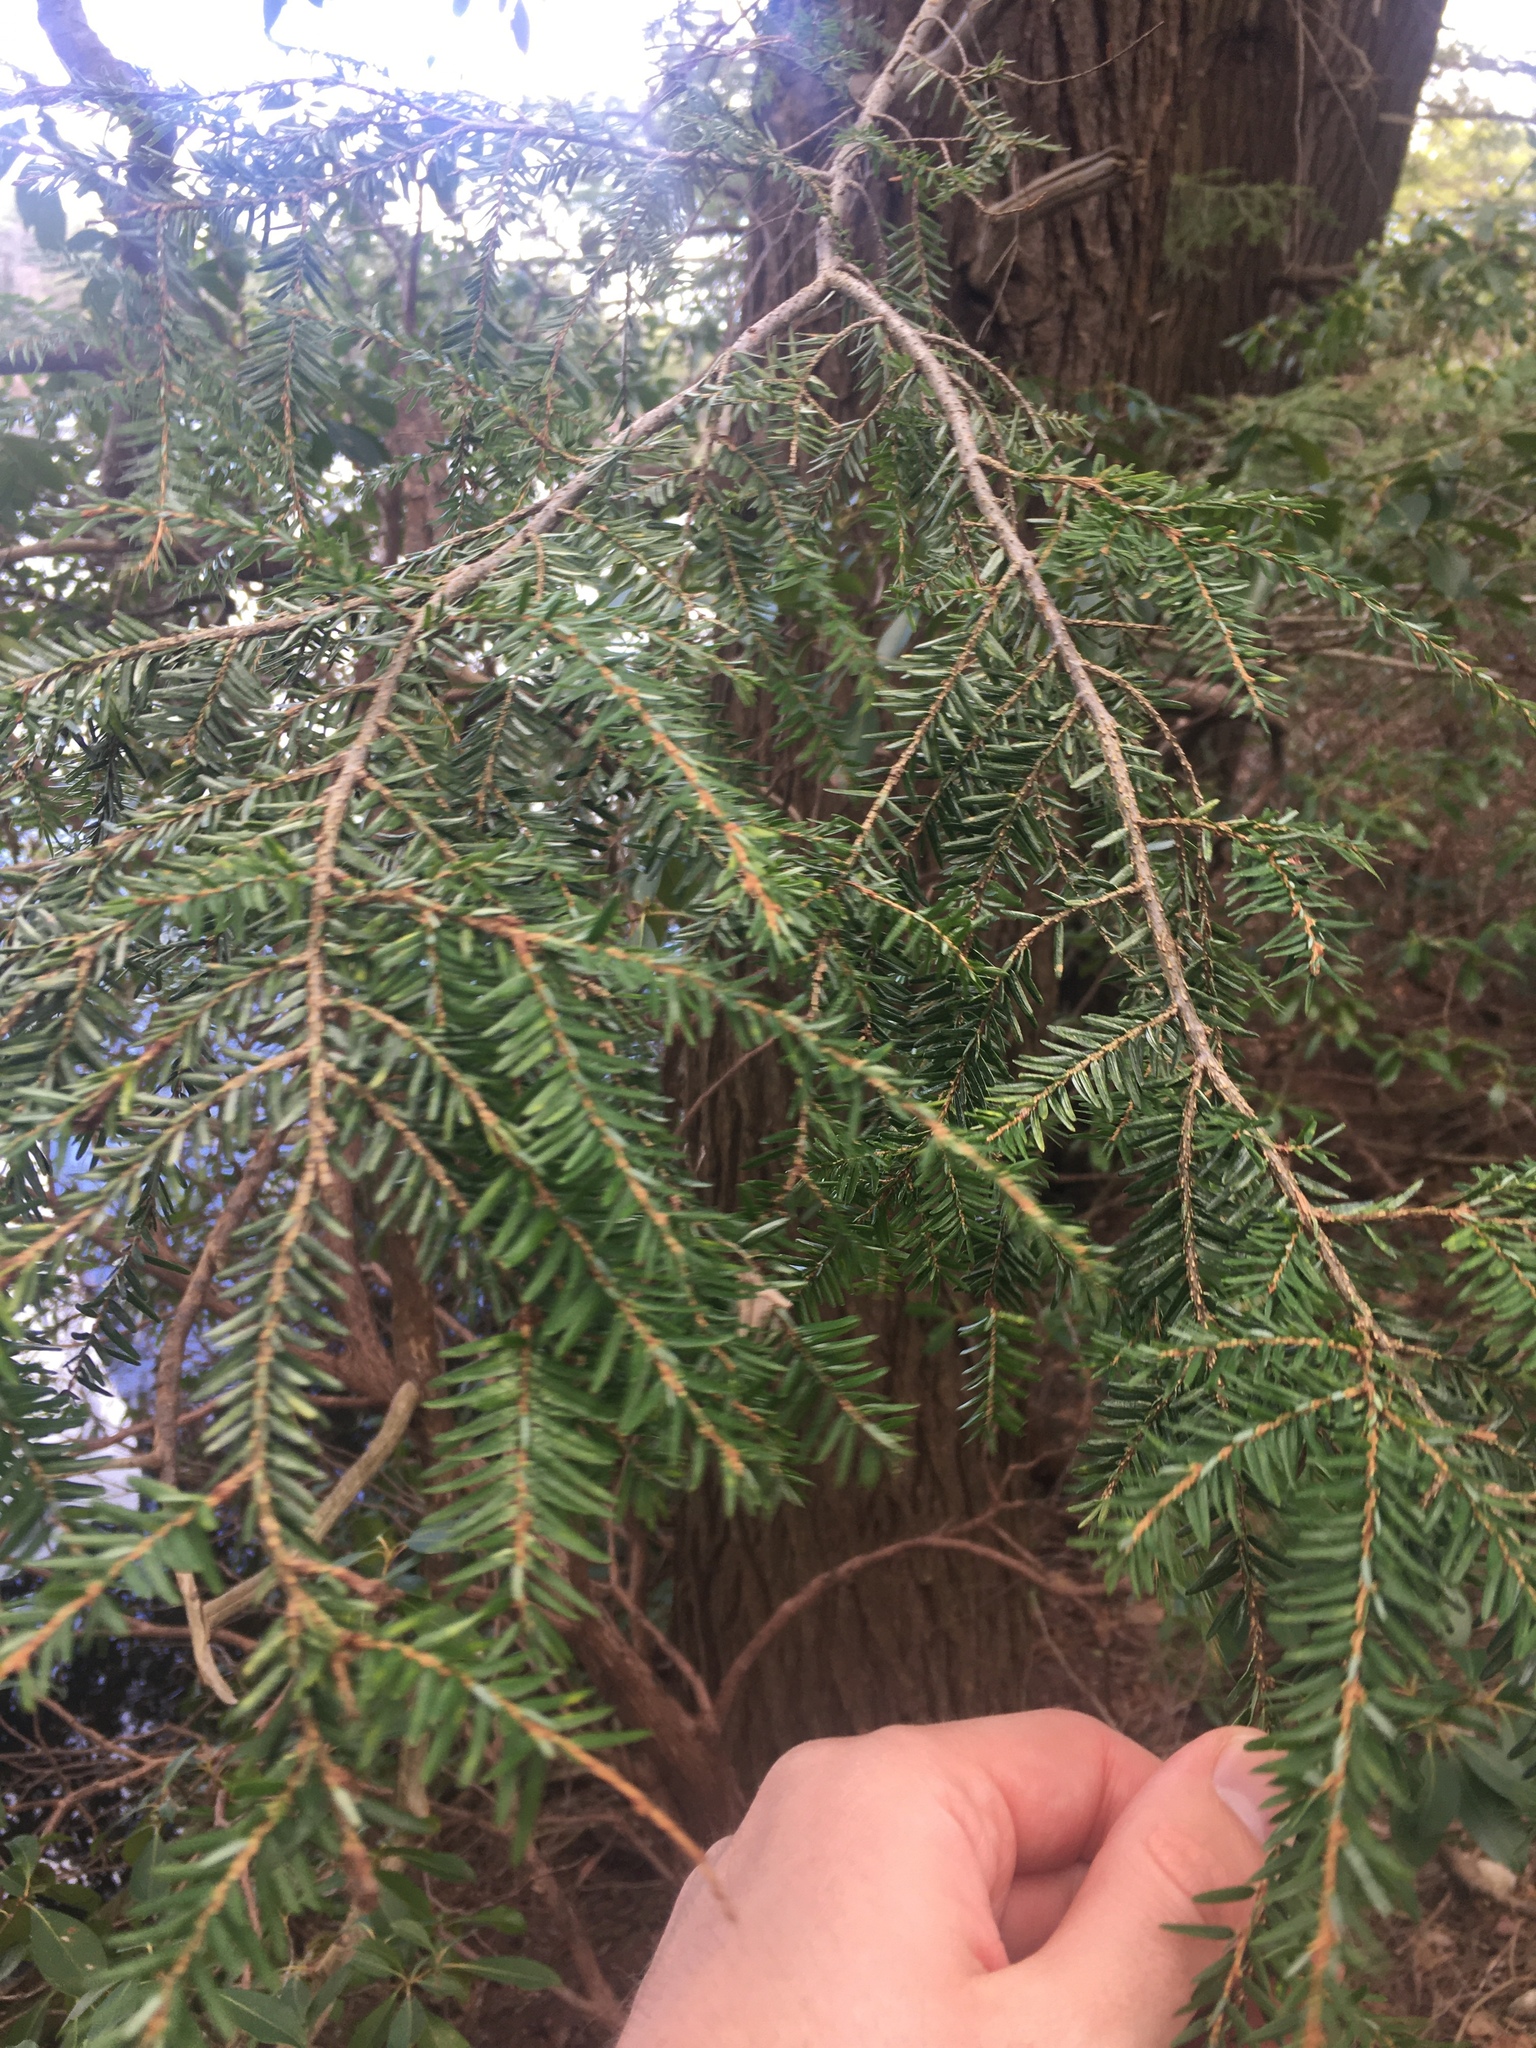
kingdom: Plantae
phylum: Tracheophyta
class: Pinopsida
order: Pinales
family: Pinaceae
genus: Tsuga
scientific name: Tsuga canadensis
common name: Eastern hemlock
